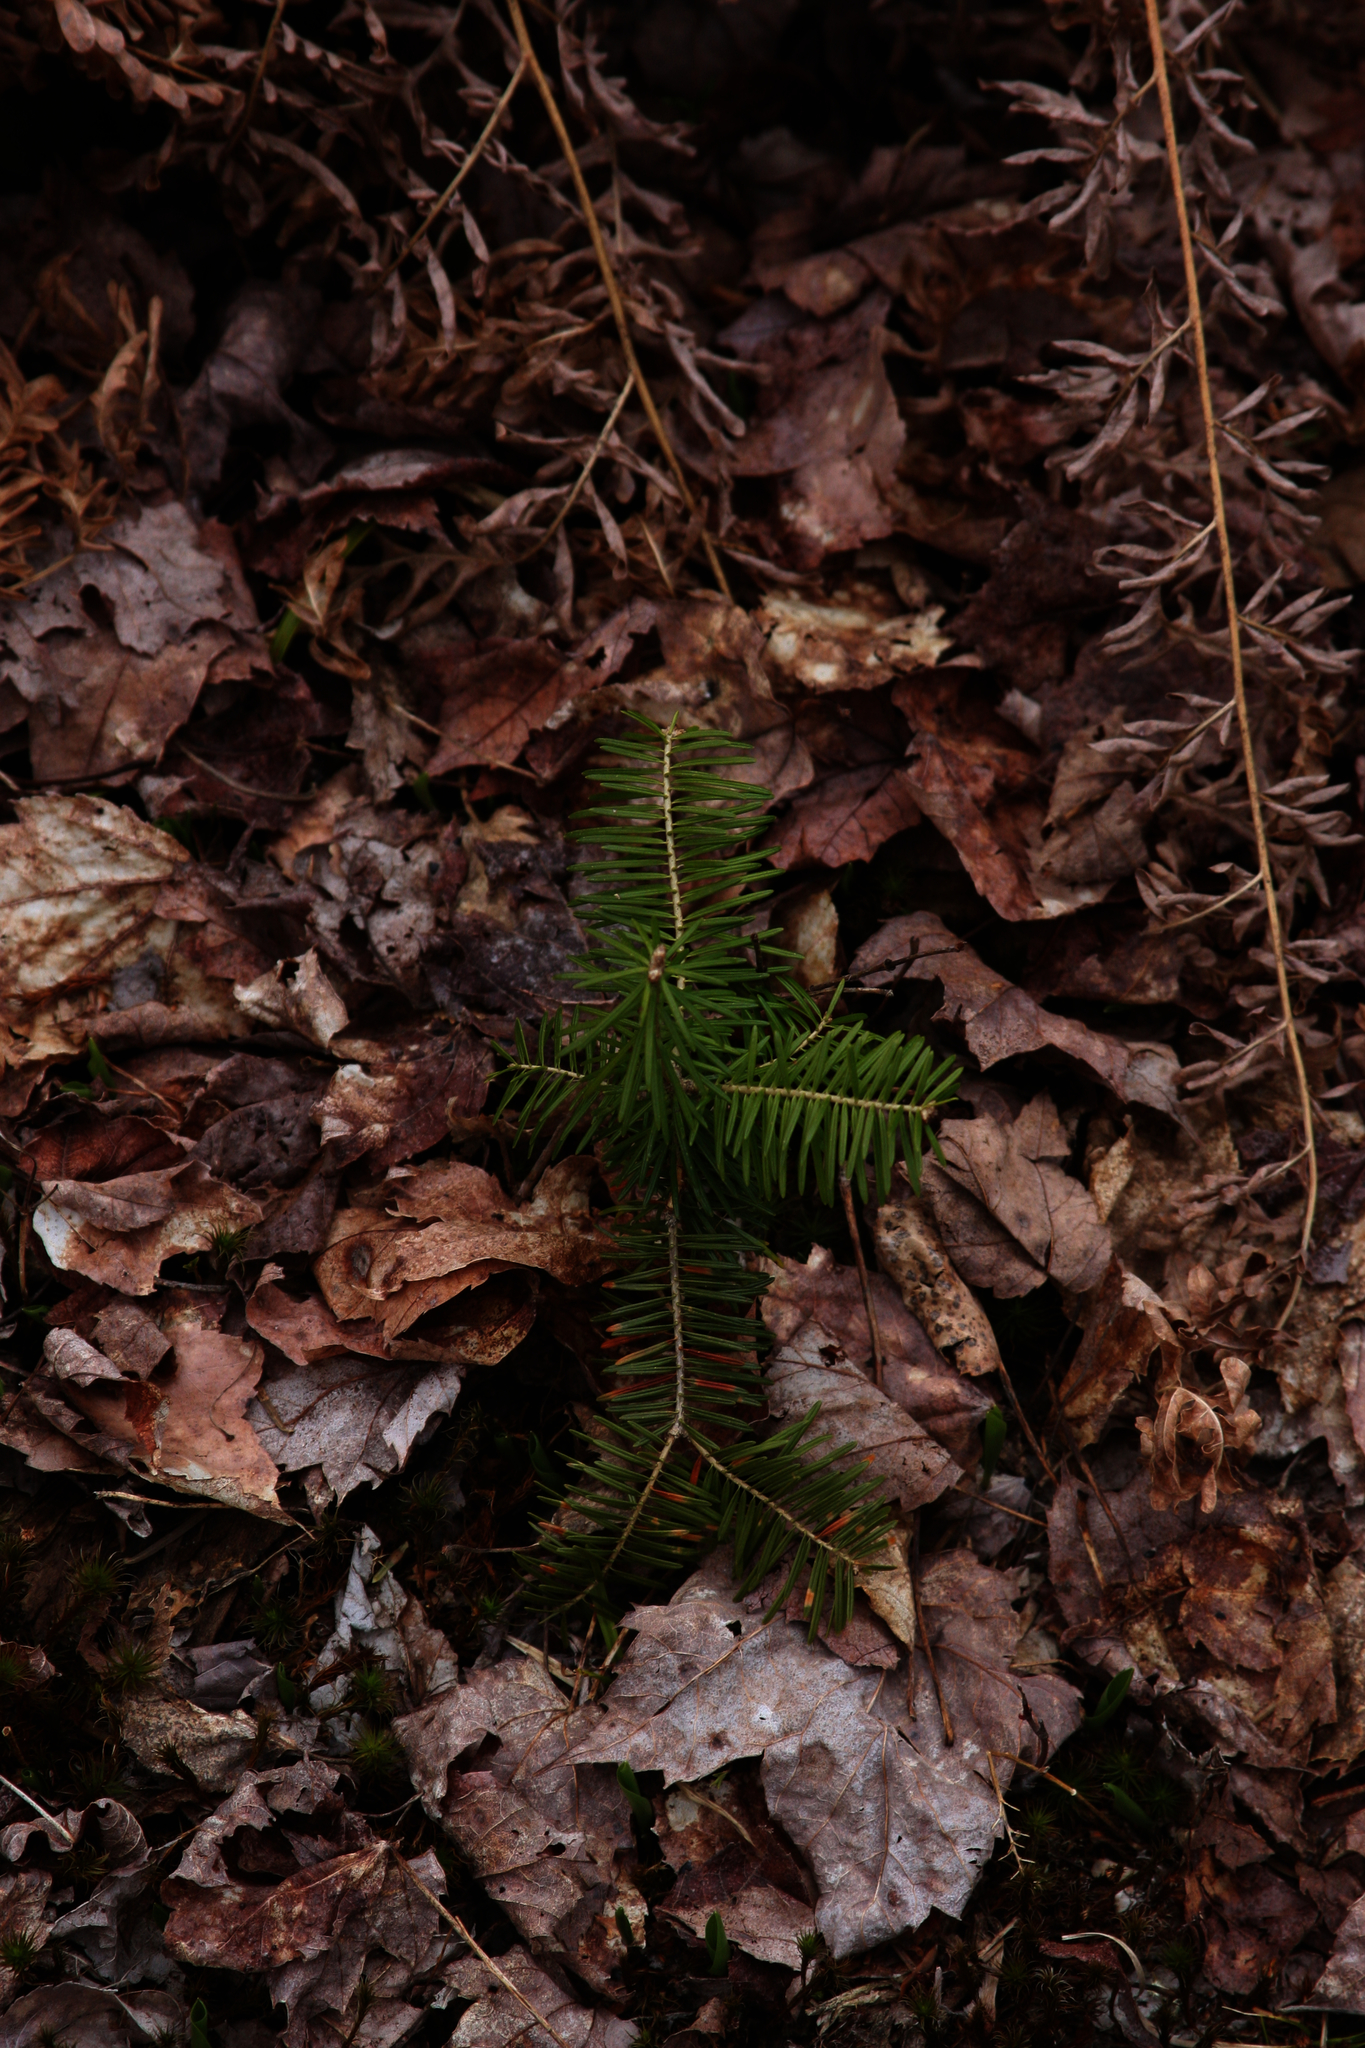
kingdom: Plantae
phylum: Tracheophyta
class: Pinopsida
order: Pinales
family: Pinaceae
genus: Abies
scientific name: Abies balsamea
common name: Balsam fir
